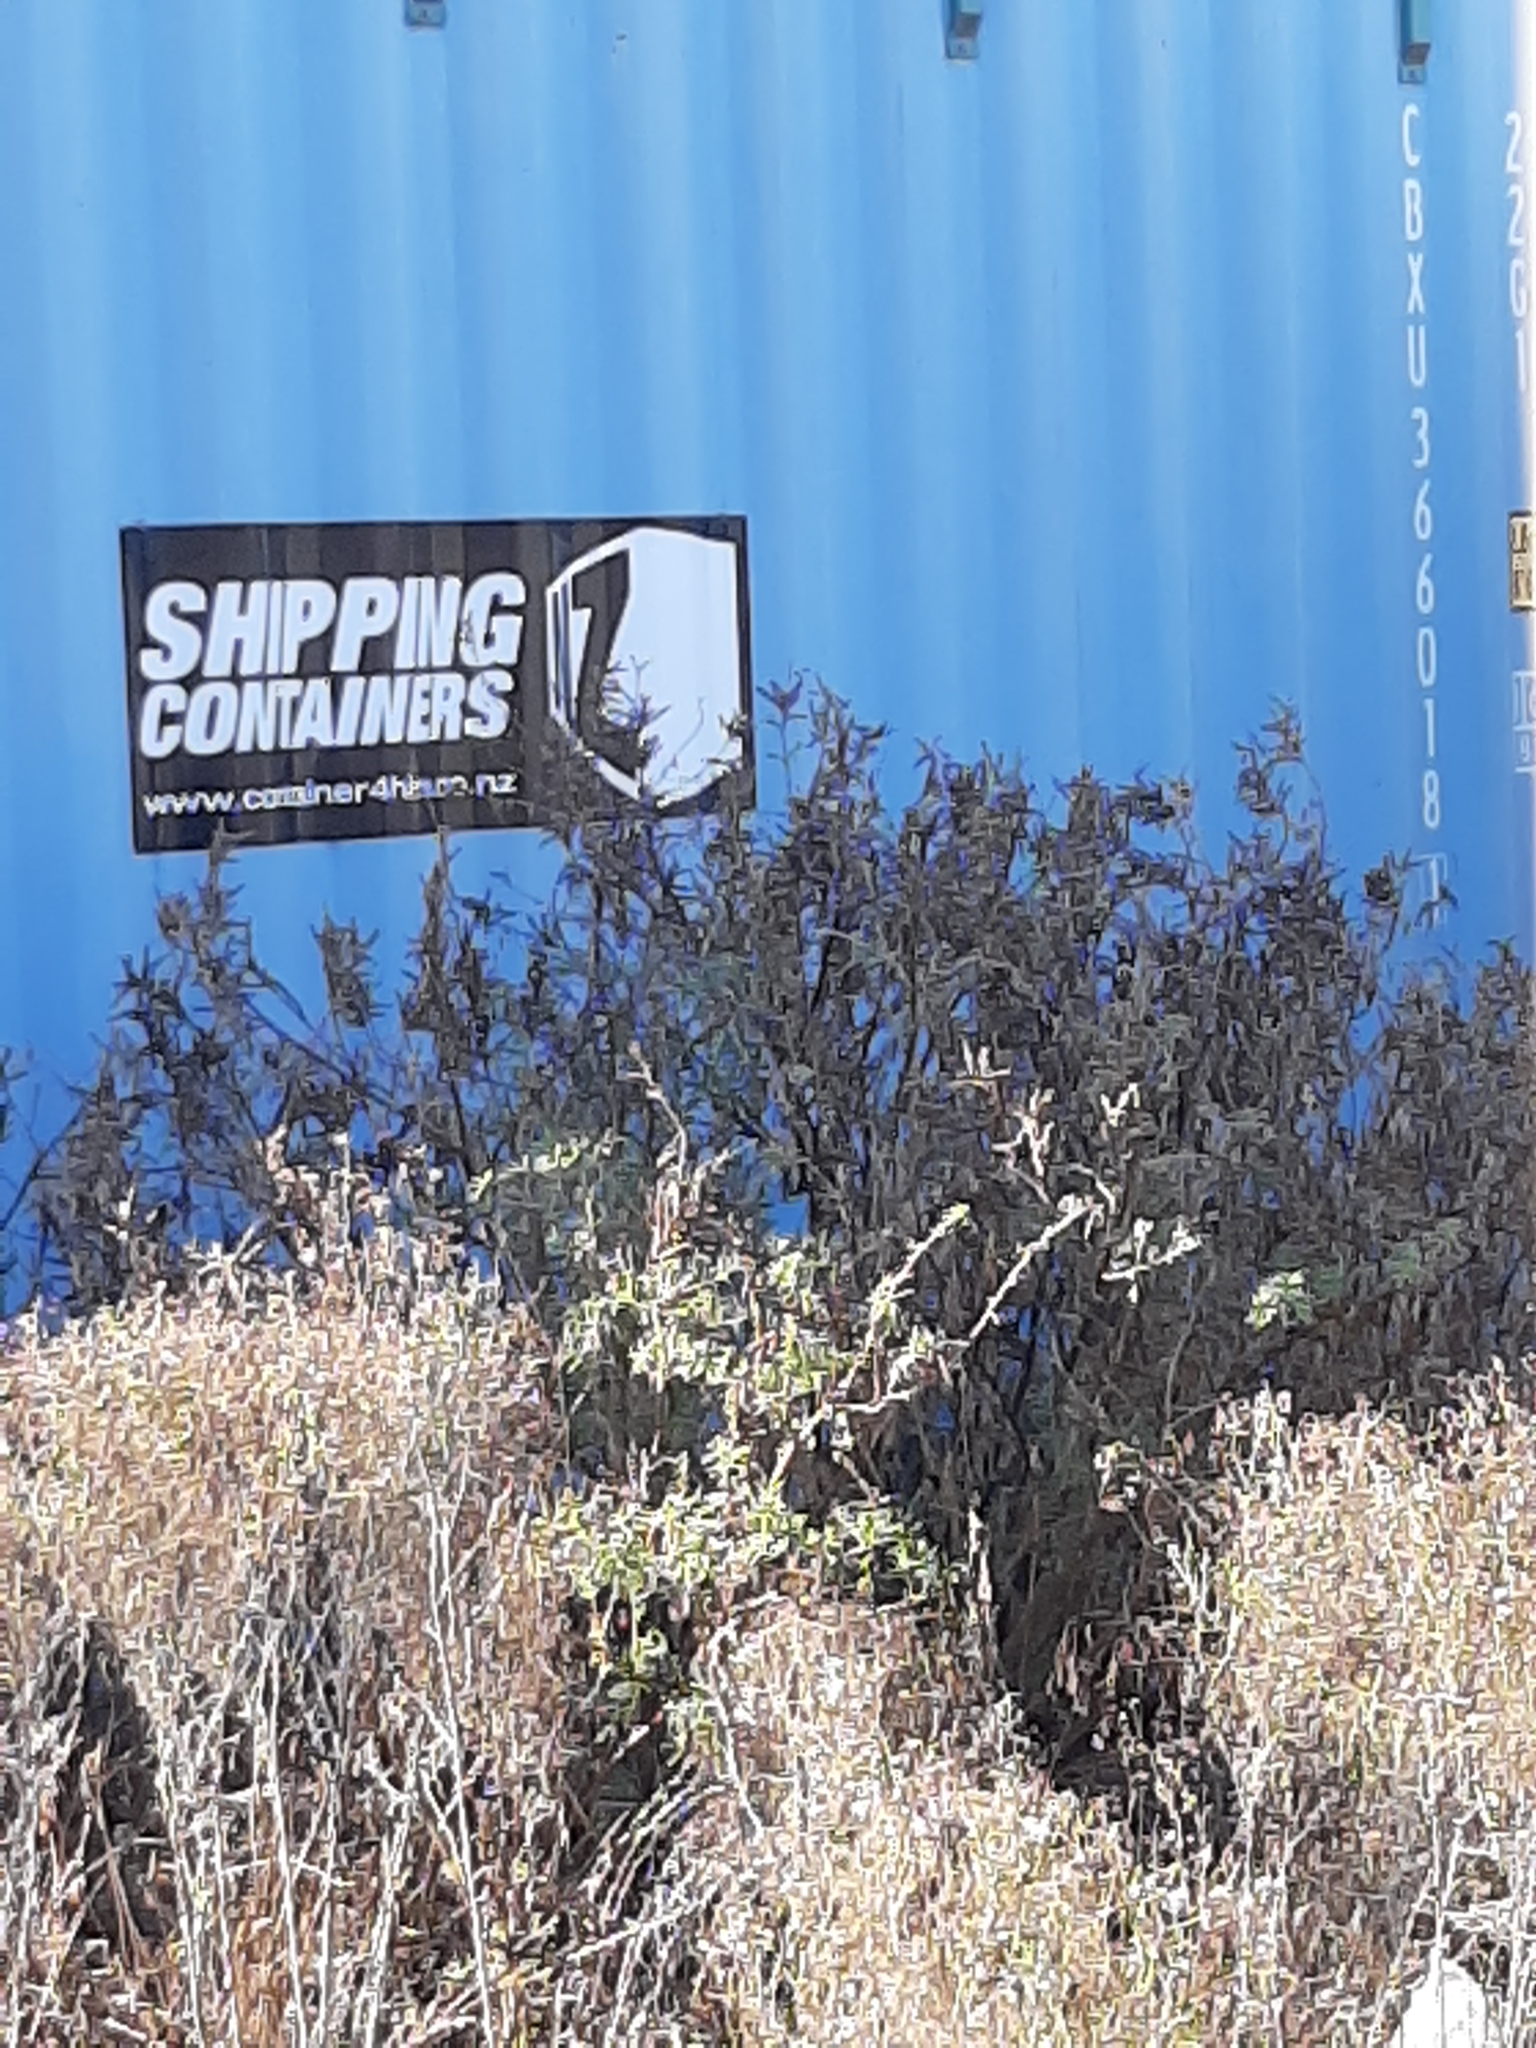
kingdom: Plantae
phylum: Tracheophyta
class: Magnoliopsida
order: Fabales
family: Fabaceae
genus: Lupinus
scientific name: Lupinus arboreus
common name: Yellow bush lupine
